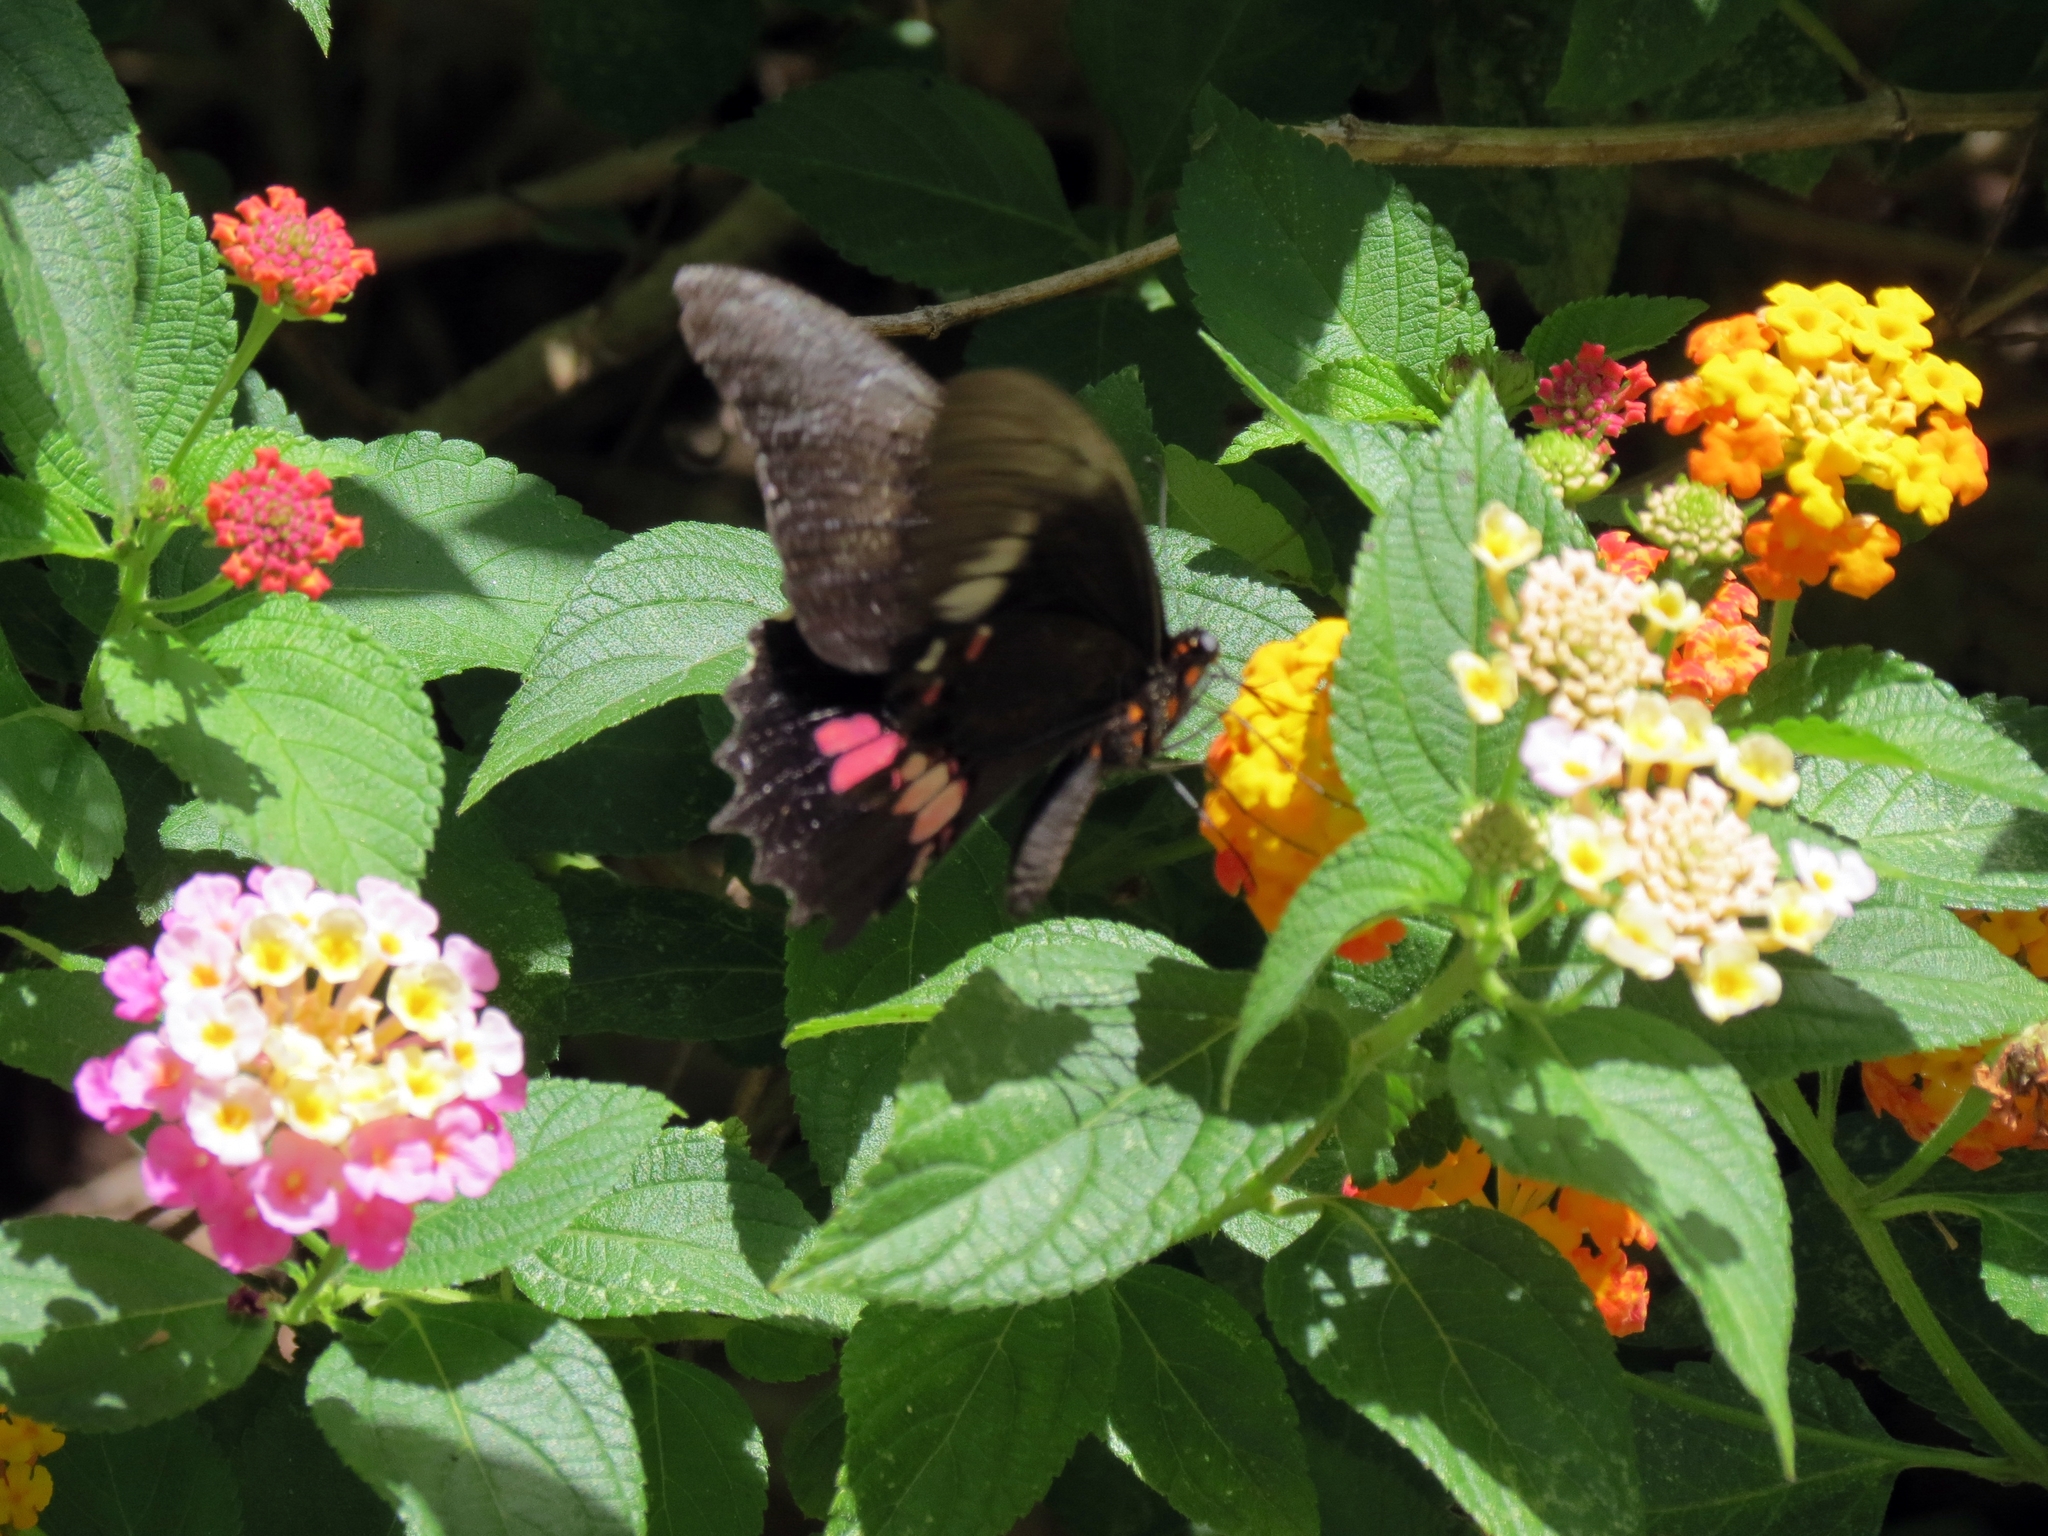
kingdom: Animalia
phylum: Arthropoda
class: Insecta
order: Lepidoptera
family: Papilionidae
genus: Papilio
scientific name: Papilio anchisiades
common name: Idaes swallowtail
